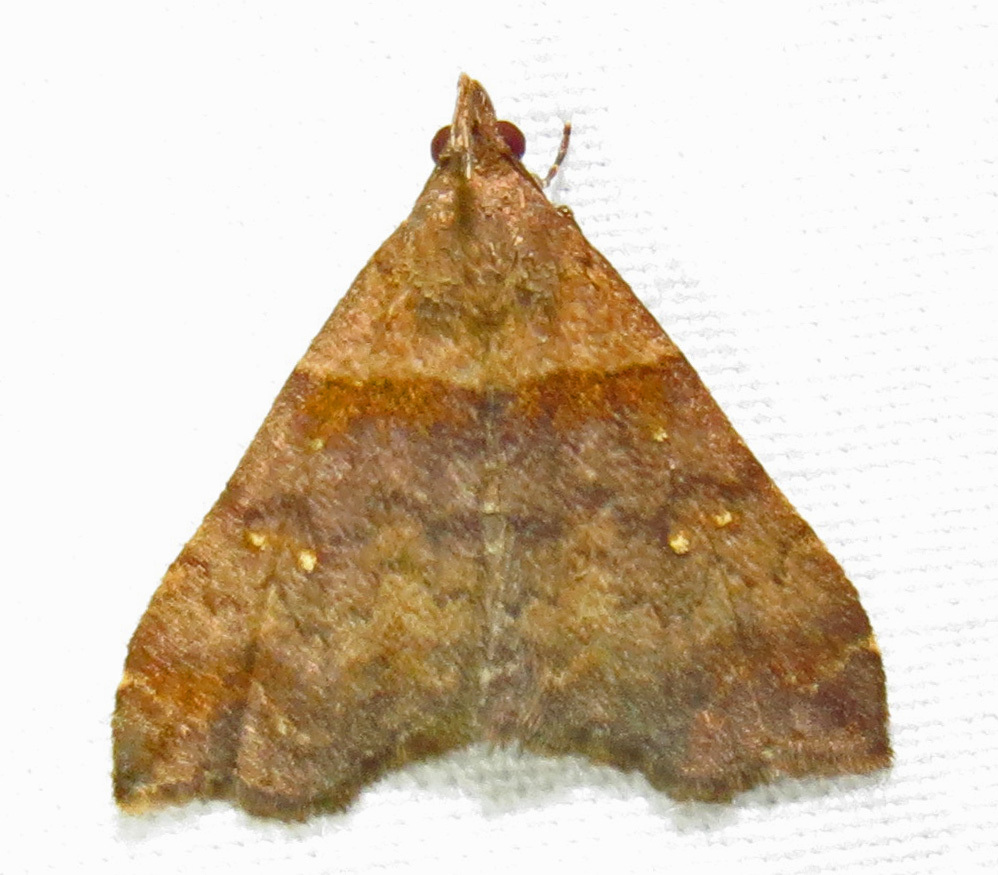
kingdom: Animalia
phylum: Arthropoda
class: Insecta
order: Lepidoptera
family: Erebidae
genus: Lascoria
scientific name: Lascoria ambigualis
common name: Ambiguous moth
